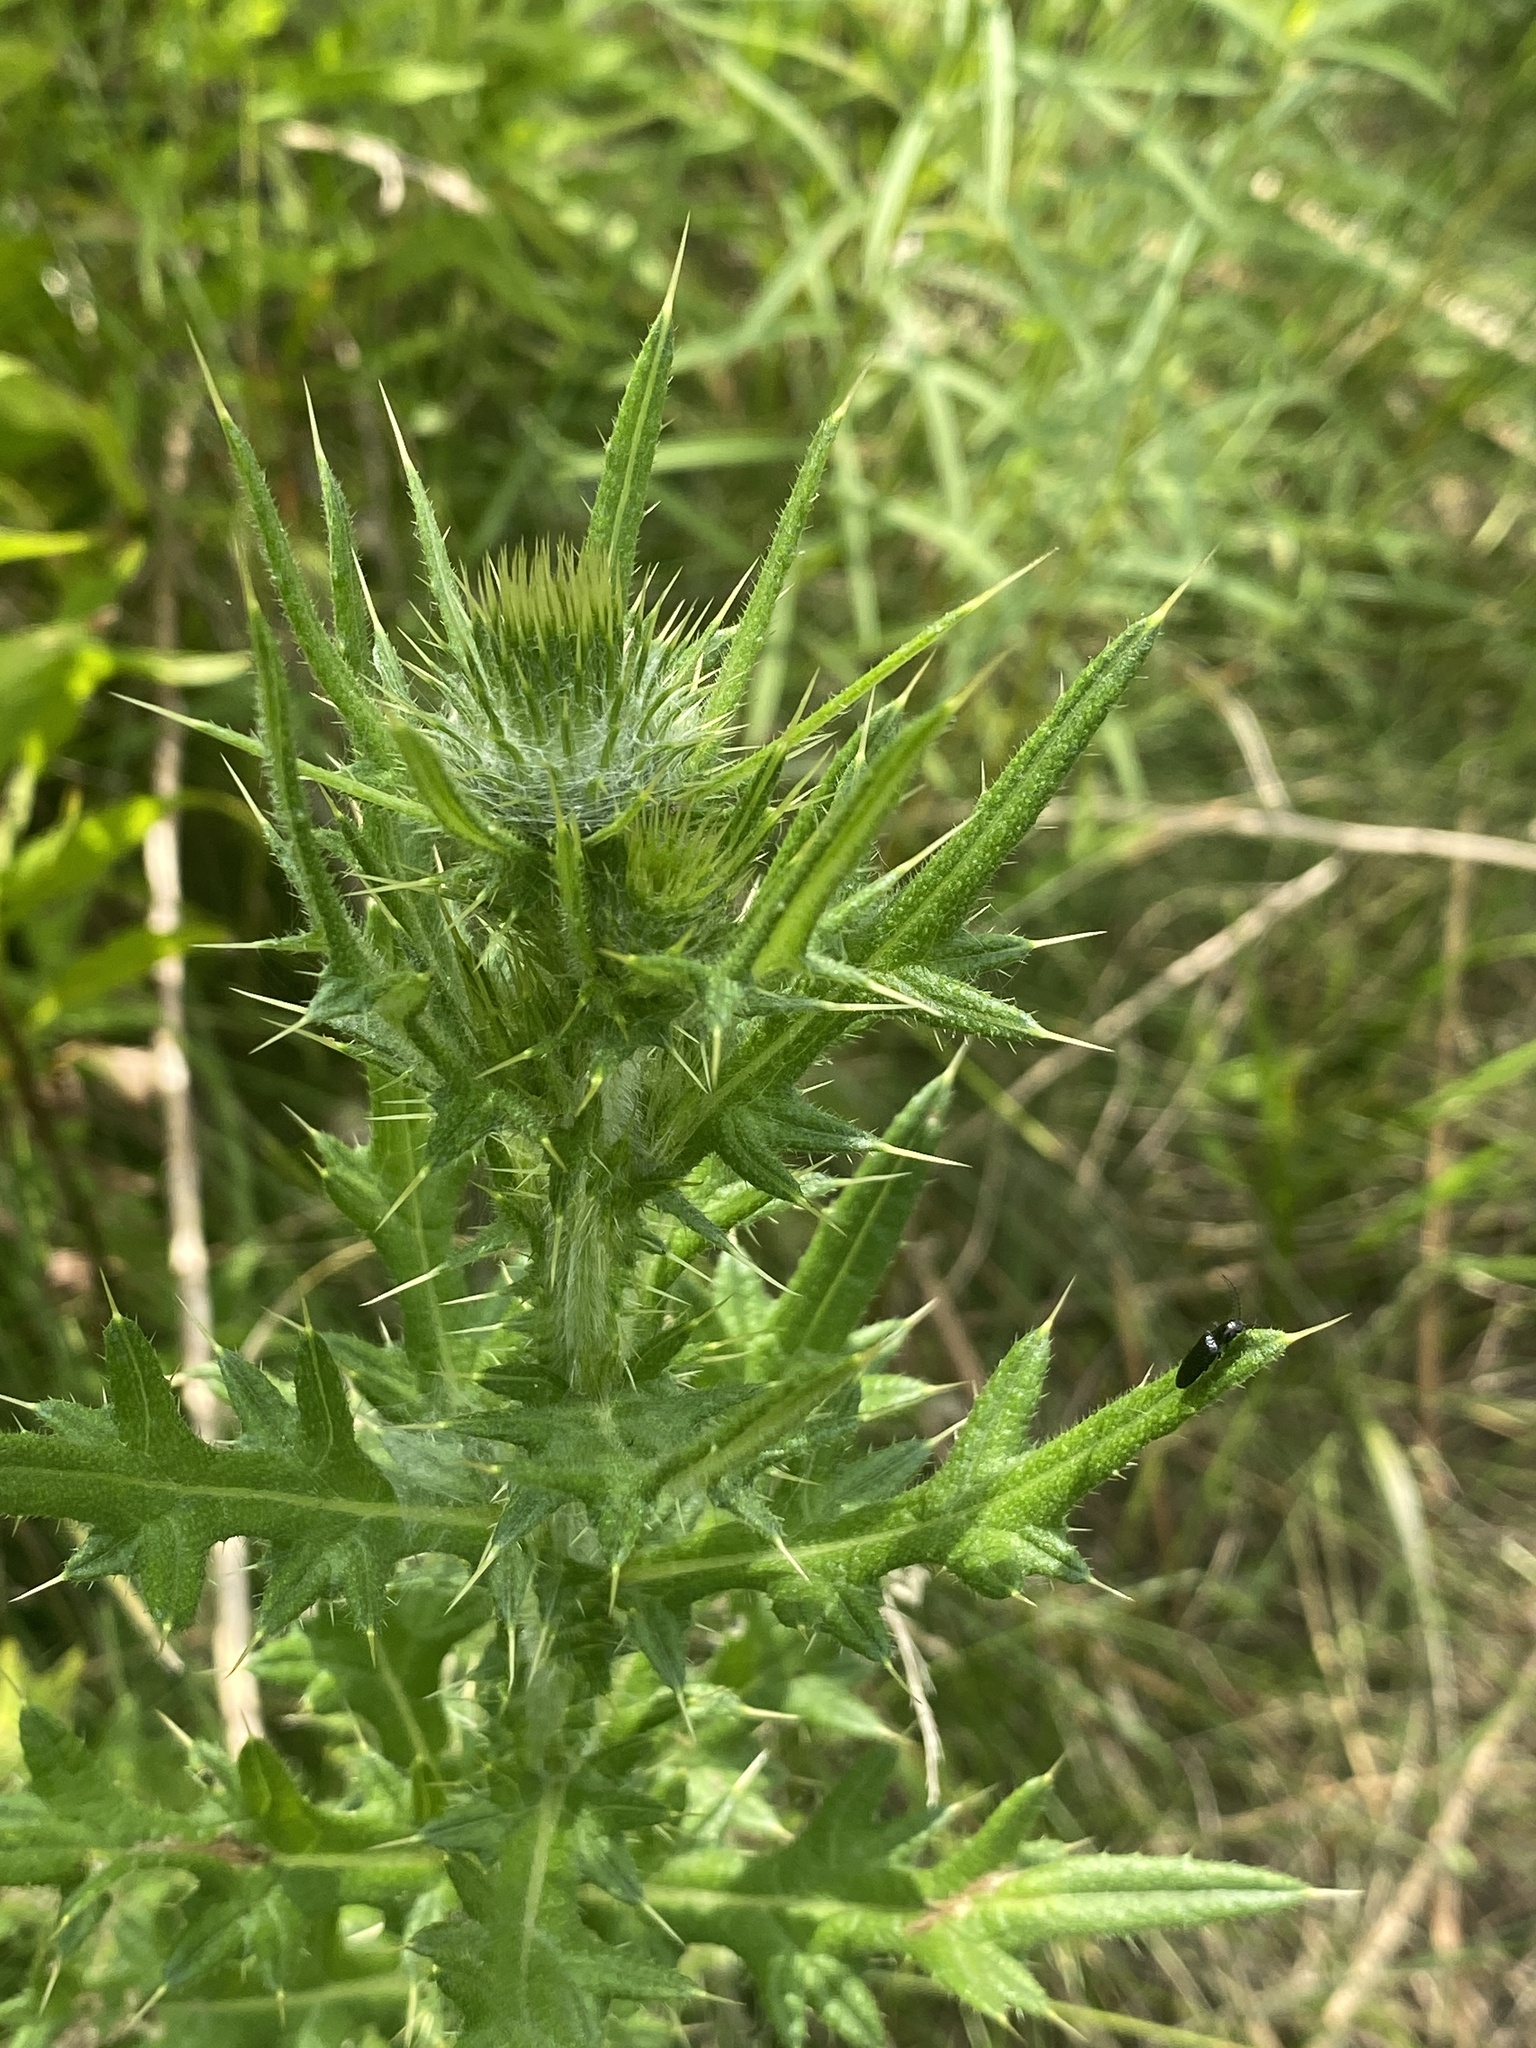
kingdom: Plantae
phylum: Tracheophyta
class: Magnoliopsida
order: Asterales
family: Asteraceae
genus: Cirsium
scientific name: Cirsium vulgare
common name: Bull thistle
